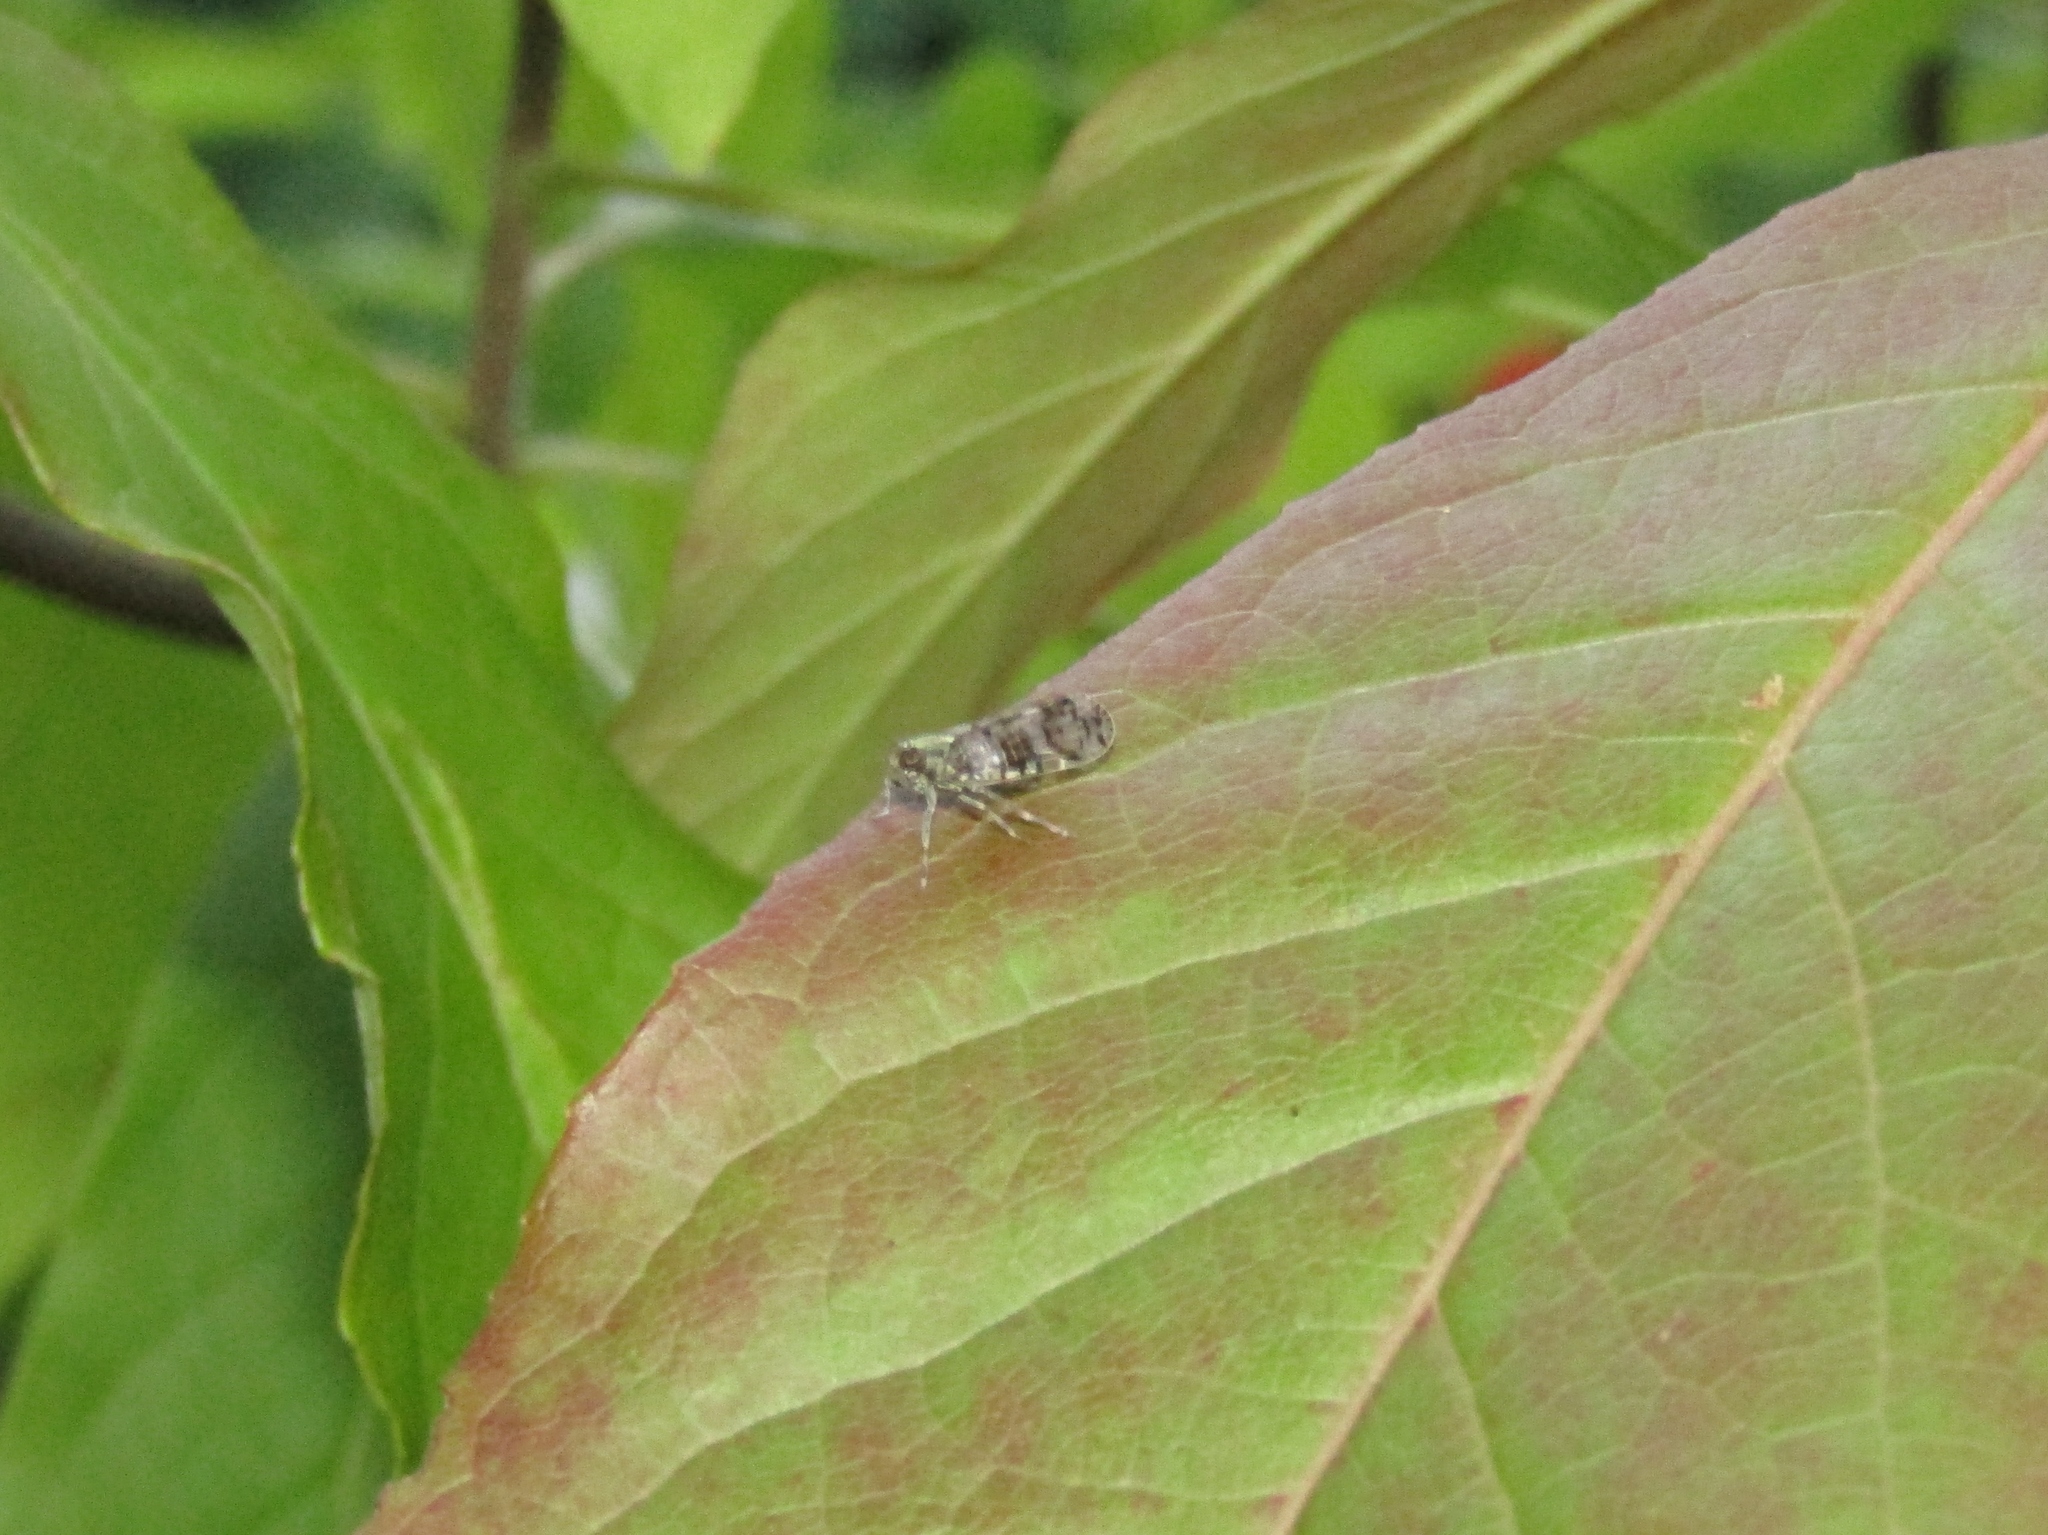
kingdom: Animalia
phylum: Arthropoda
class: Insecta
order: Hemiptera
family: Cixiidae
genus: Melanoliarus
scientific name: Melanoliarus placitus
